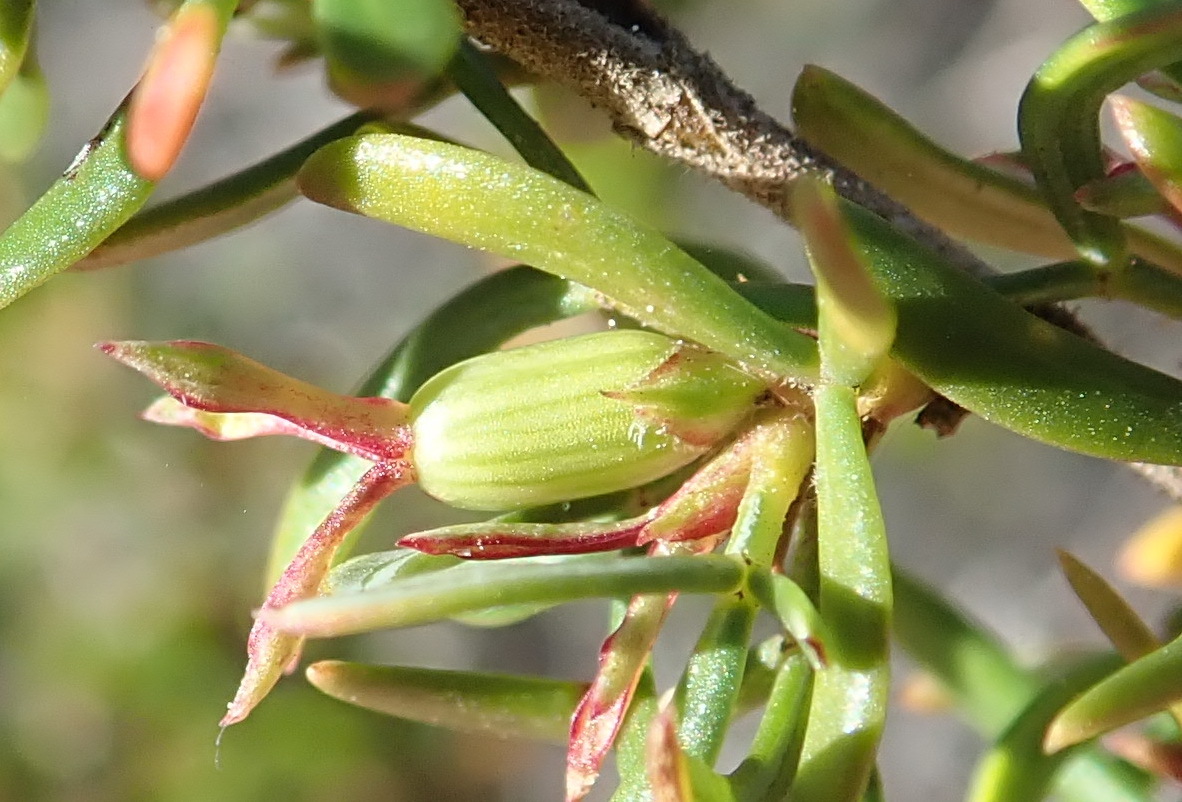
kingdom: Plantae
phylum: Tracheophyta
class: Magnoliopsida
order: Rosales
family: Rosaceae
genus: Cliffortia
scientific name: Cliffortia falcata
